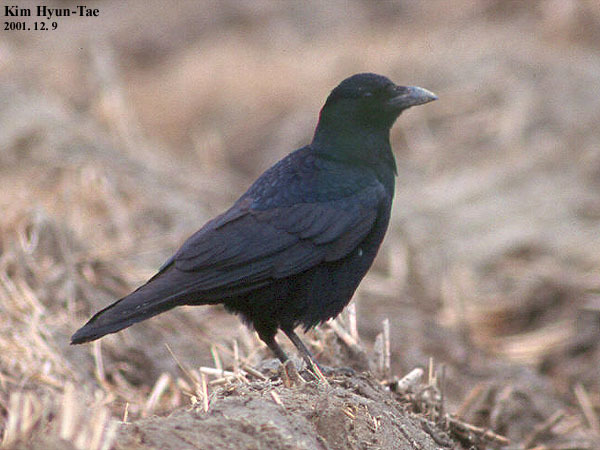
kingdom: Animalia
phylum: Chordata
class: Aves
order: Passeriformes
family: Corvidae
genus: Corvus
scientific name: Corvus corone
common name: Carrion crow
